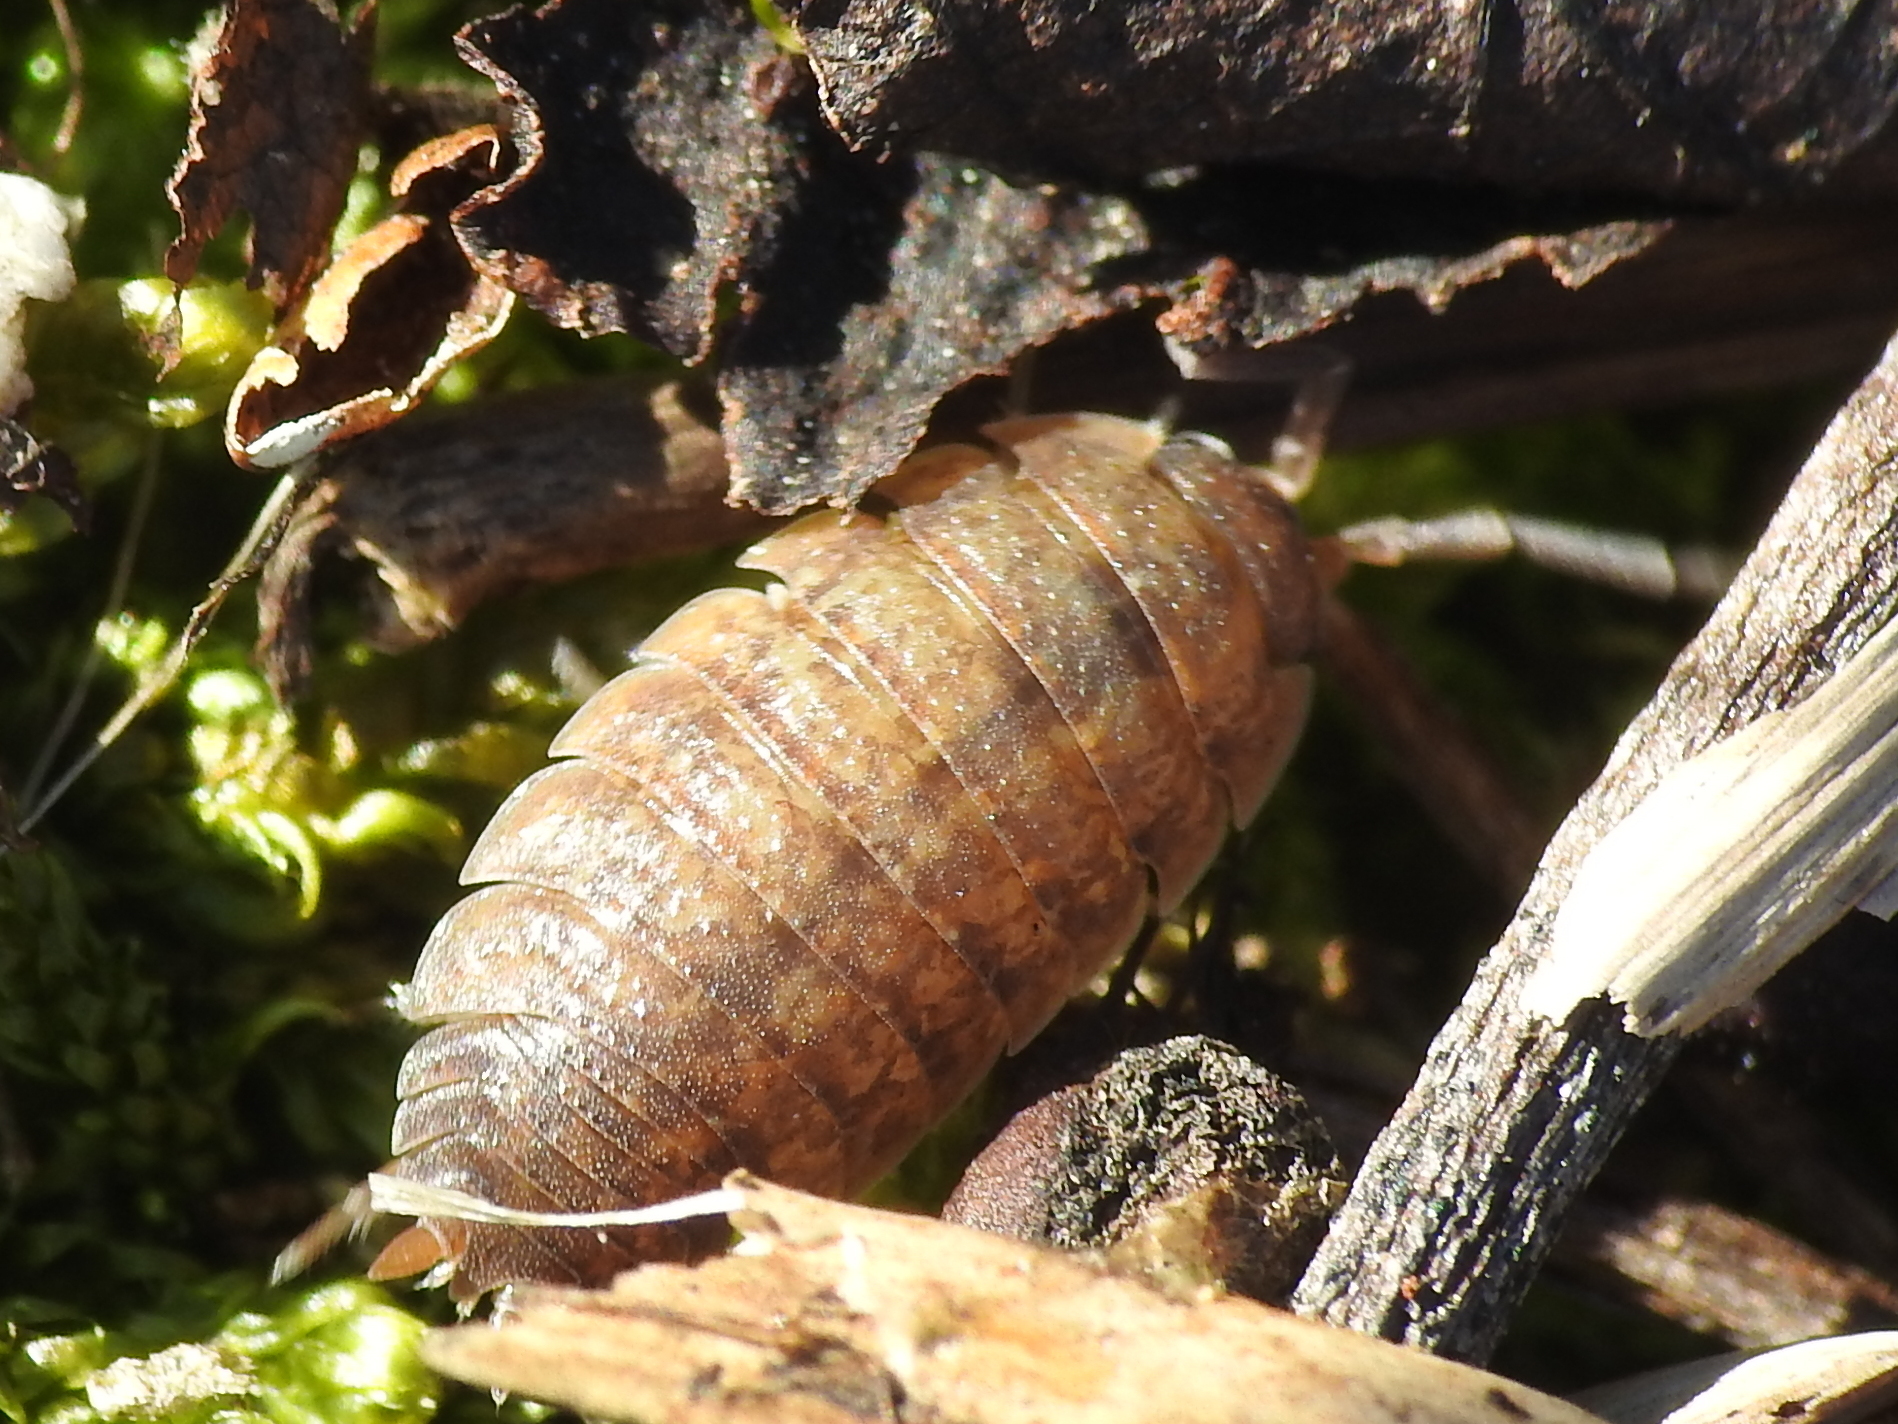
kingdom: Animalia
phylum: Arthropoda
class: Malacostraca
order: Isopoda
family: Porcellionidae
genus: Porcellio
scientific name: Porcellio scaber
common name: Common rough woodlouse
